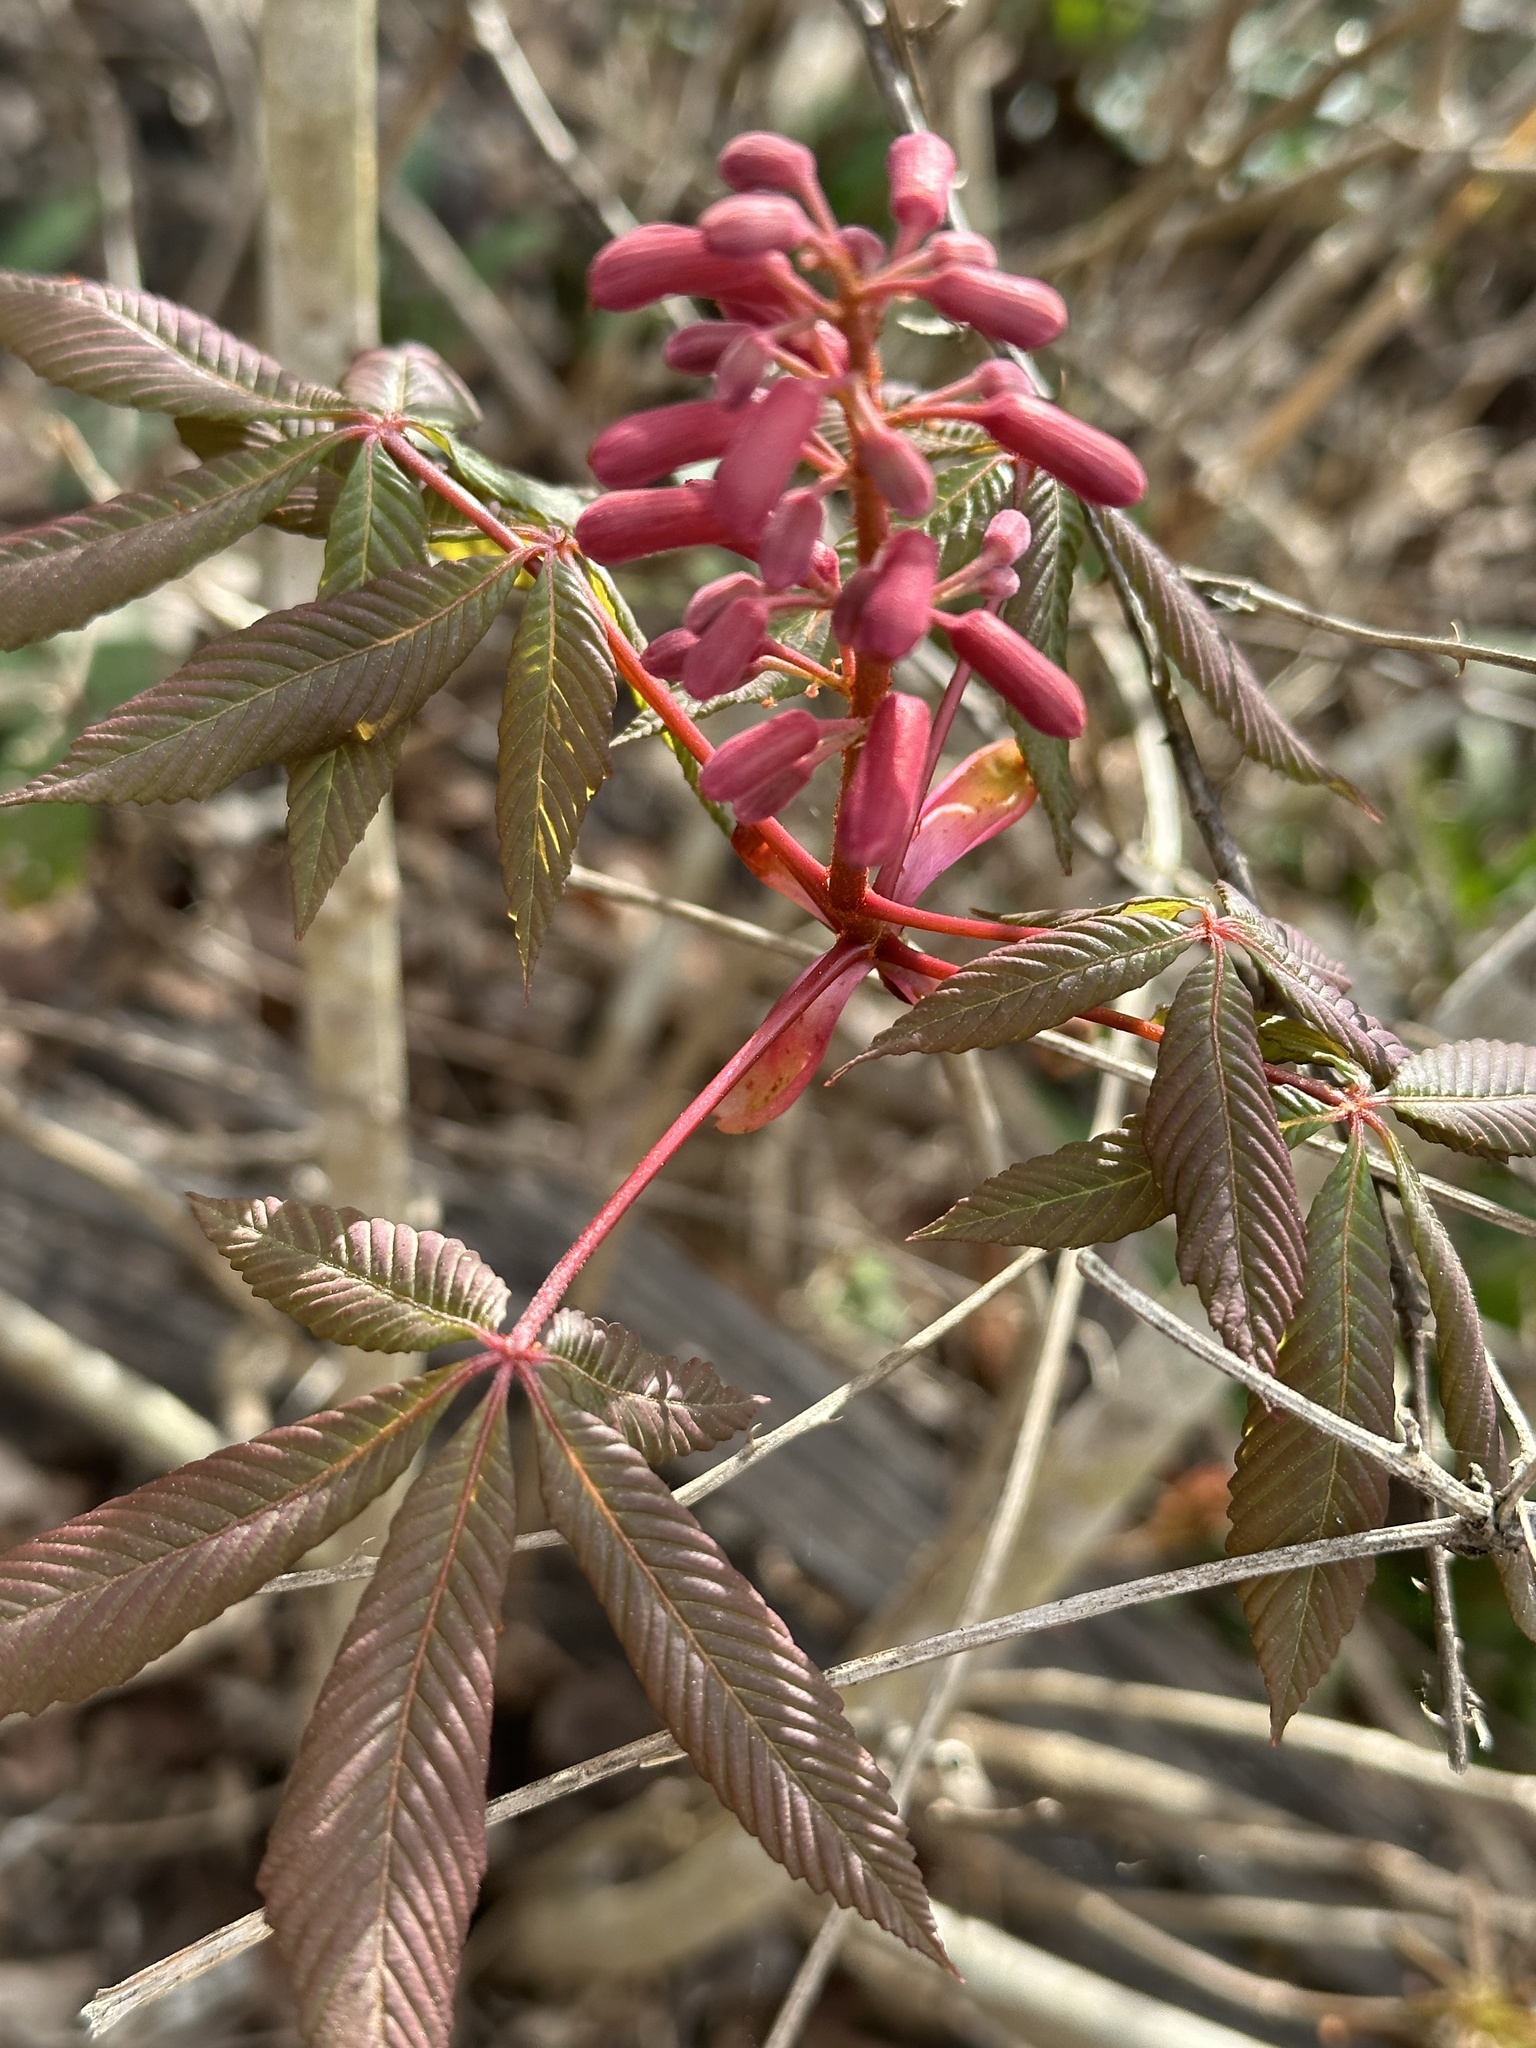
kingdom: Plantae
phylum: Tracheophyta
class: Magnoliopsida
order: Sapindales
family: Sapindaceae
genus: Aesculus
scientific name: Aesculus pavia
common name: Red buckeye
